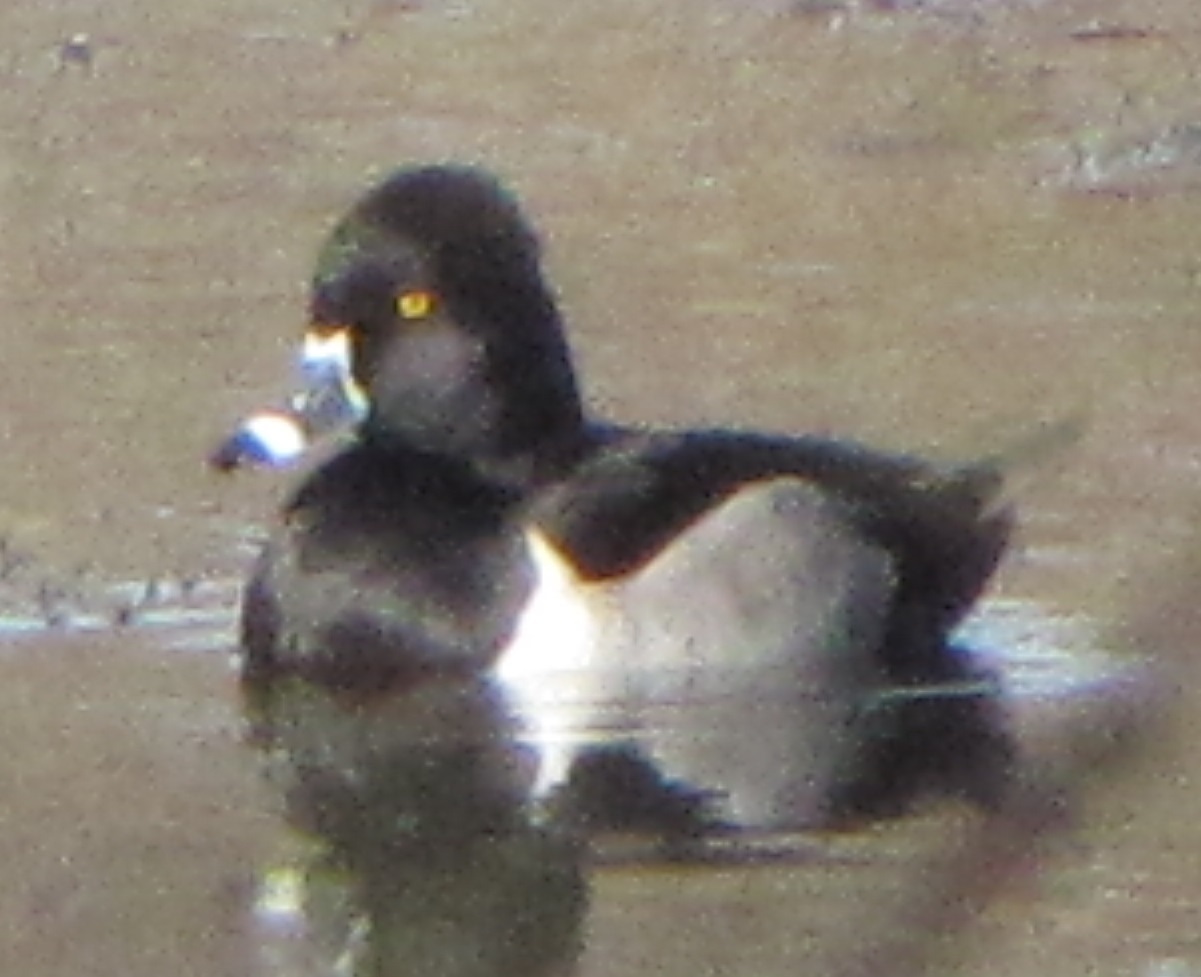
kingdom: Animalia
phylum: Chordata
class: Aves
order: Anseriformes
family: Anatidae
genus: Aythya
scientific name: Aythya collaris
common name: Ring-necked duck
